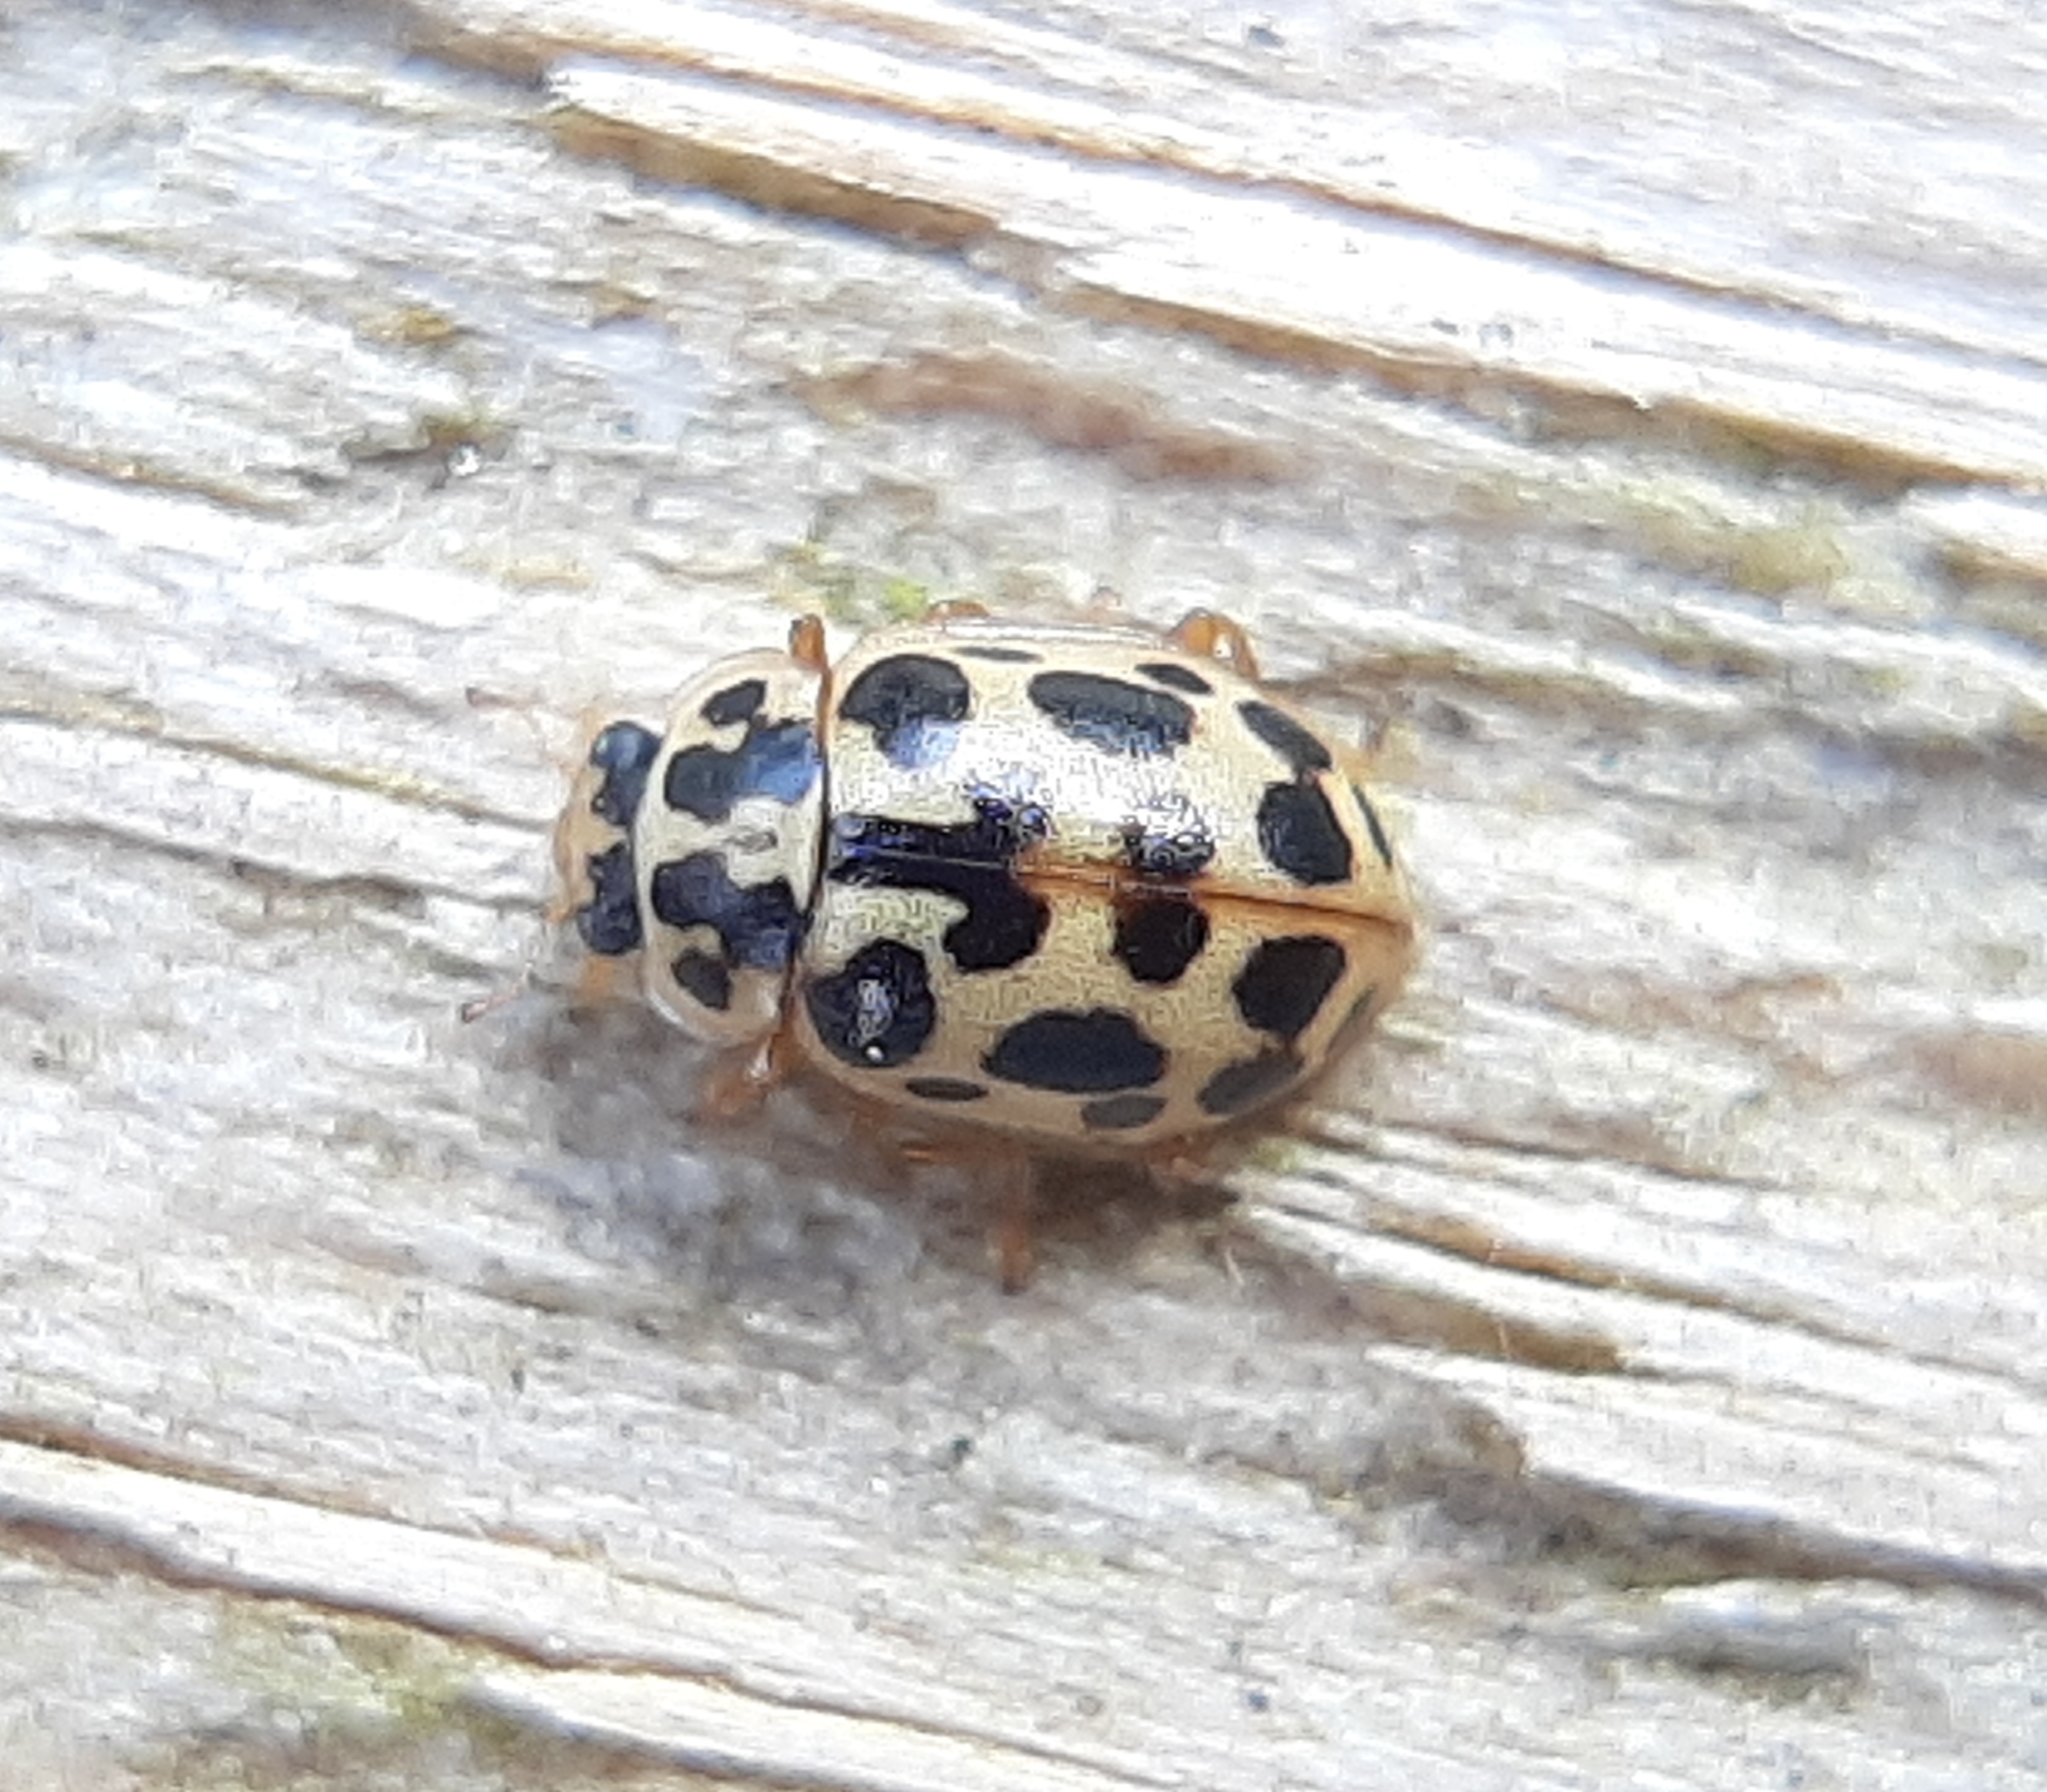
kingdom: Animalia
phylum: Arthropoda
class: Insecta
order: Coleoptera
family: Coccinellidae
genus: Anisosticta
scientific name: Anisosticta bitriangularis
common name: Marsh lady beetle
